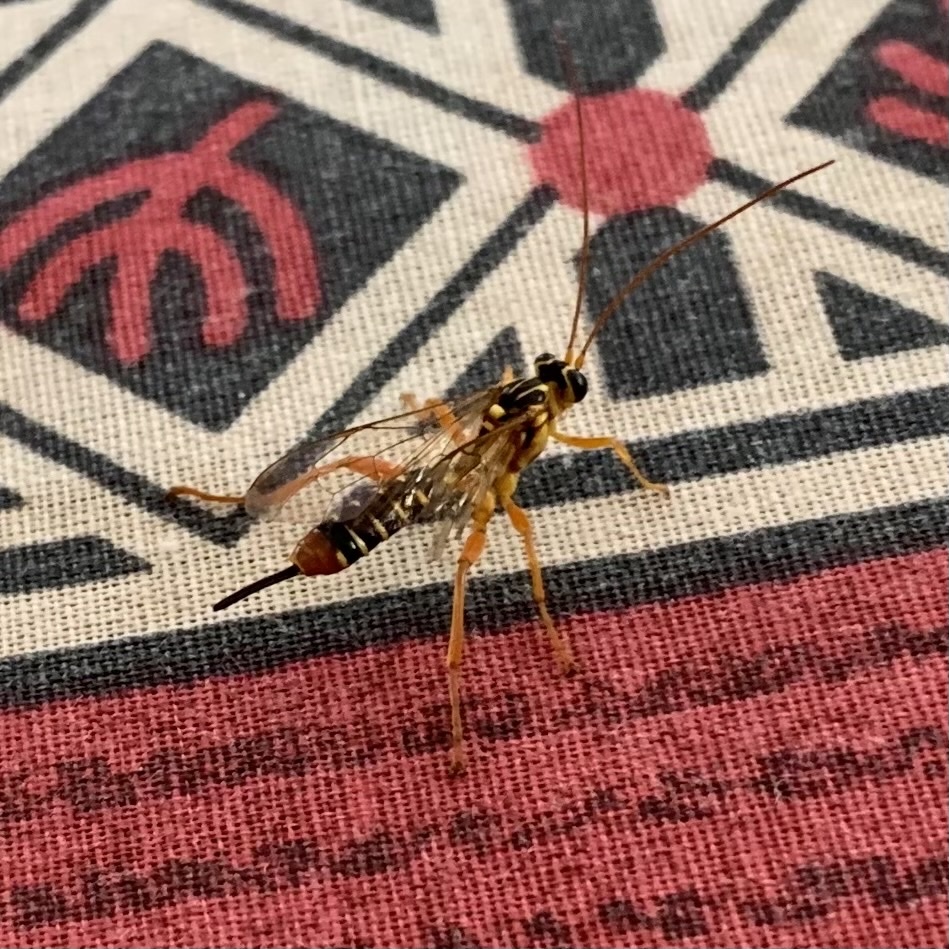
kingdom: Animalia
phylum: Arthropoda
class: Insecta
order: Hymenoptera
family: Ichneumonidae
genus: Echthromorpha
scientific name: Echthromorpha agrestoria
